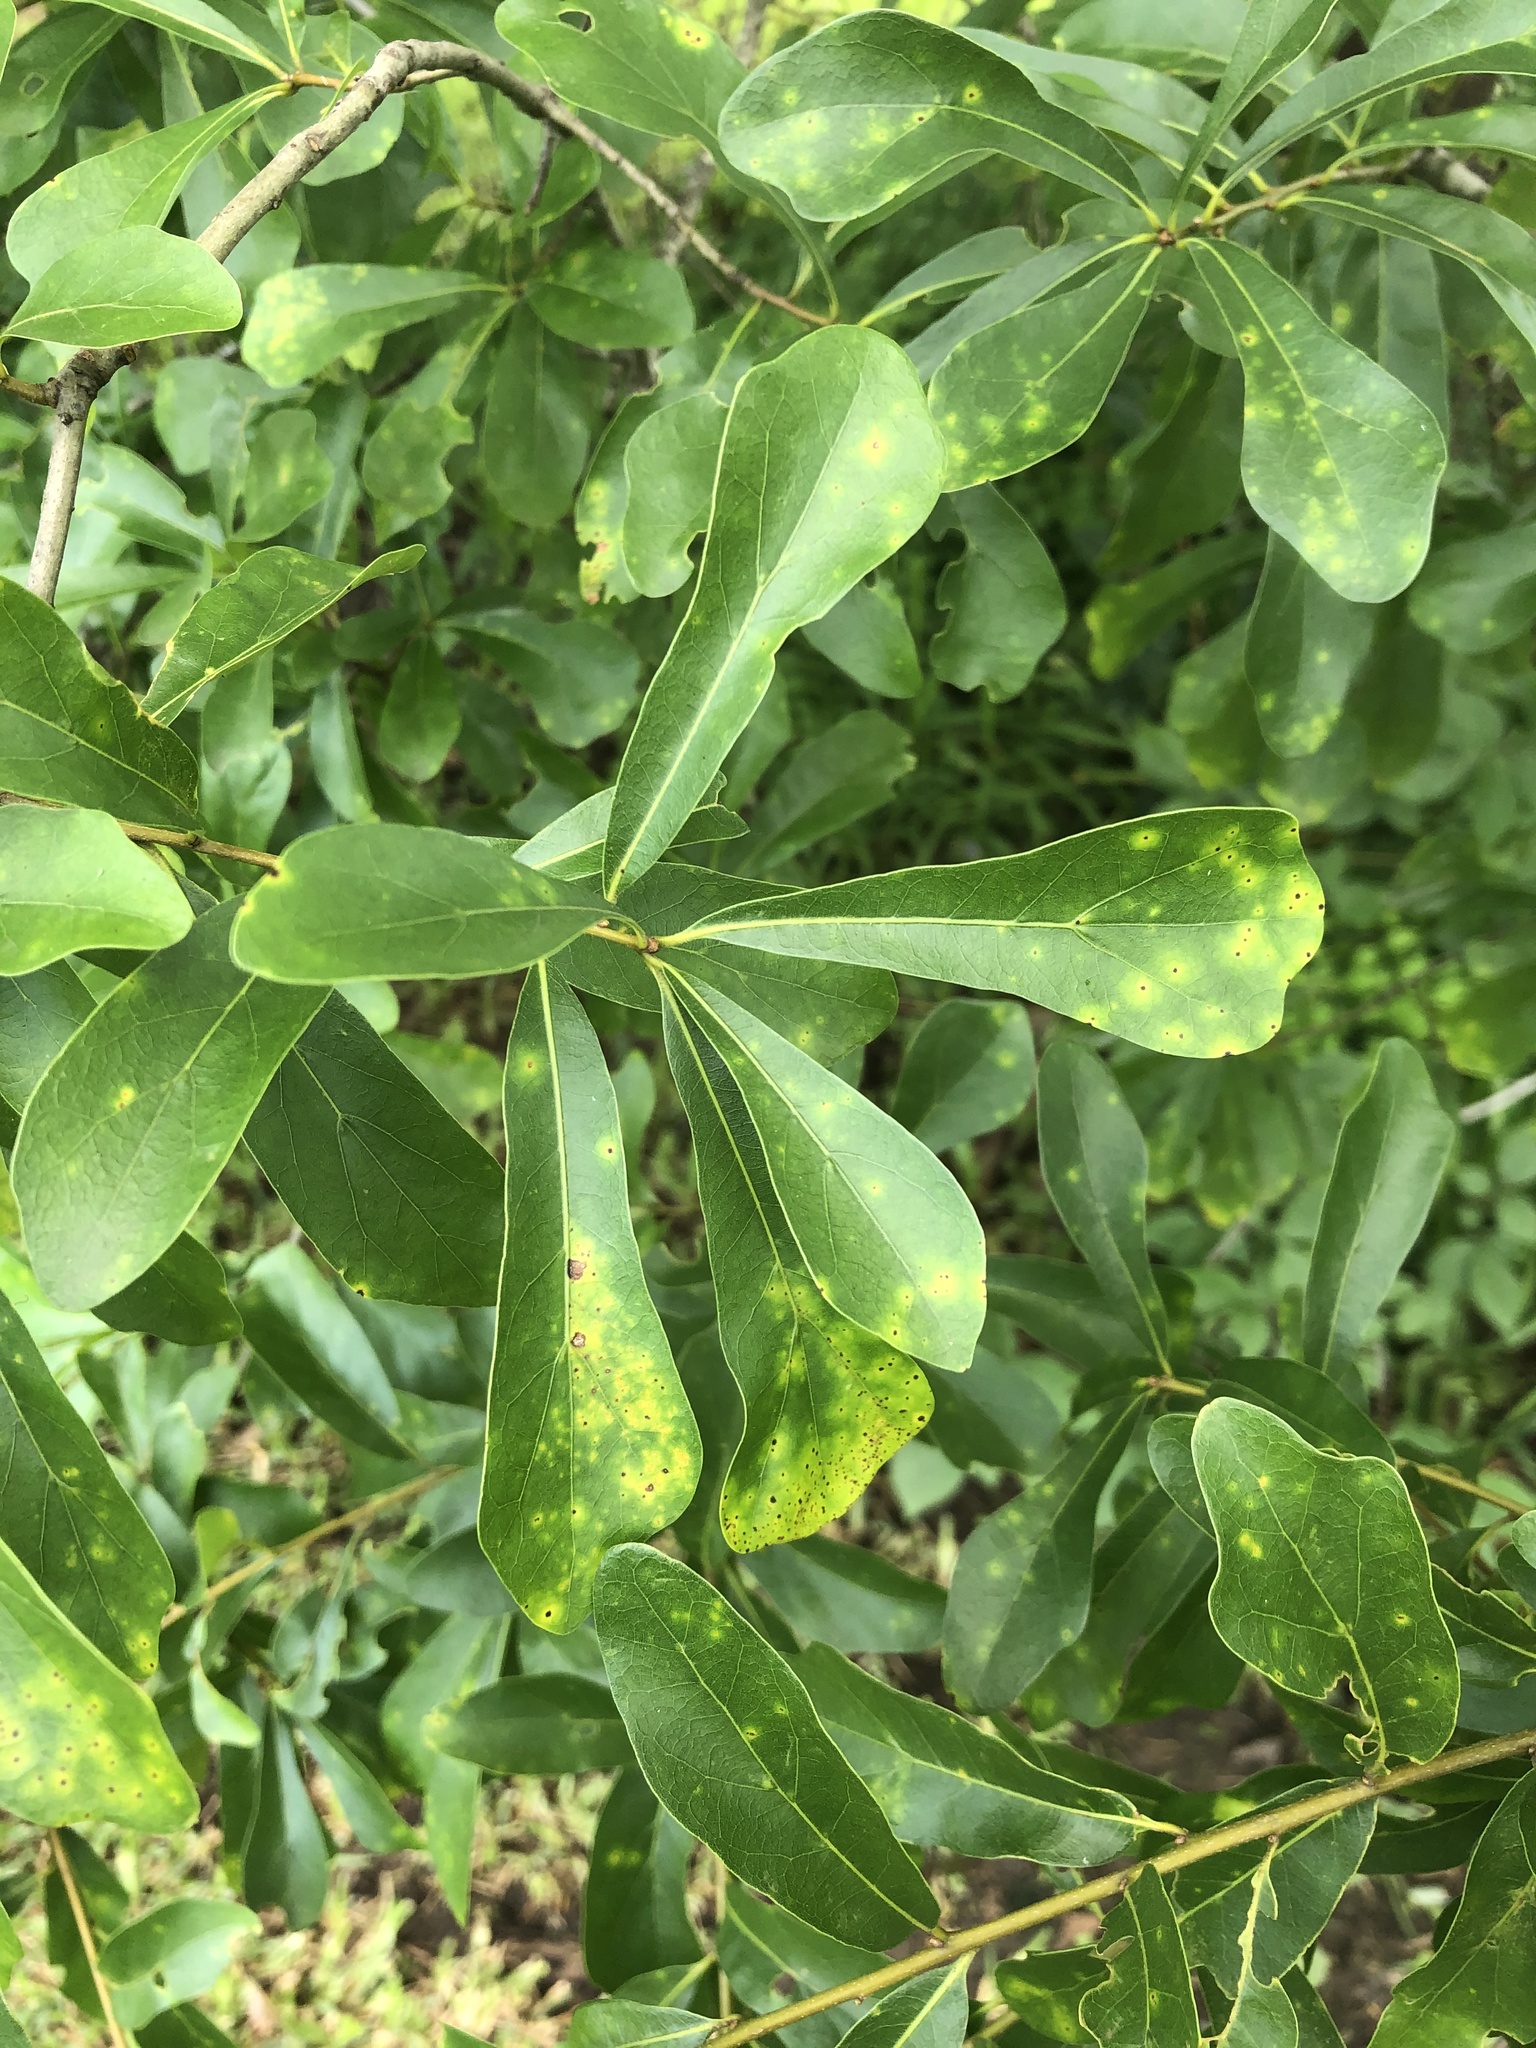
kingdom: Plantae
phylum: Tracheophyta
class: Magnoliopsida
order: Fagales
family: Fagaceae
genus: Quercus
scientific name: Quercus nigra
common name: Water oak
